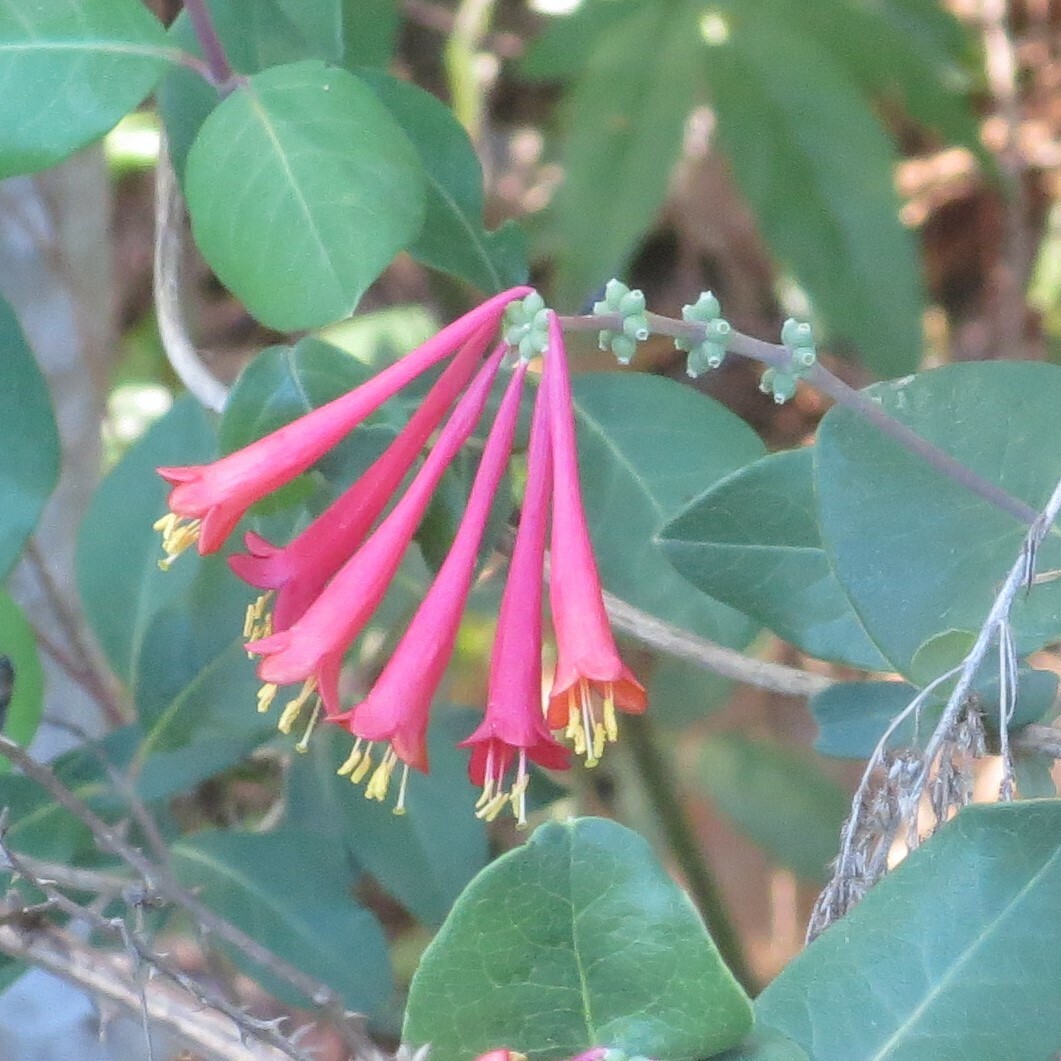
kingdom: Plantae
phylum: Tracheophyta
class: Magnoliopsida
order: Dipsacales
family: Caprifoliaceae
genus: Lonicera
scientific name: Lonicera sempervirens
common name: Coral honeysuckle
